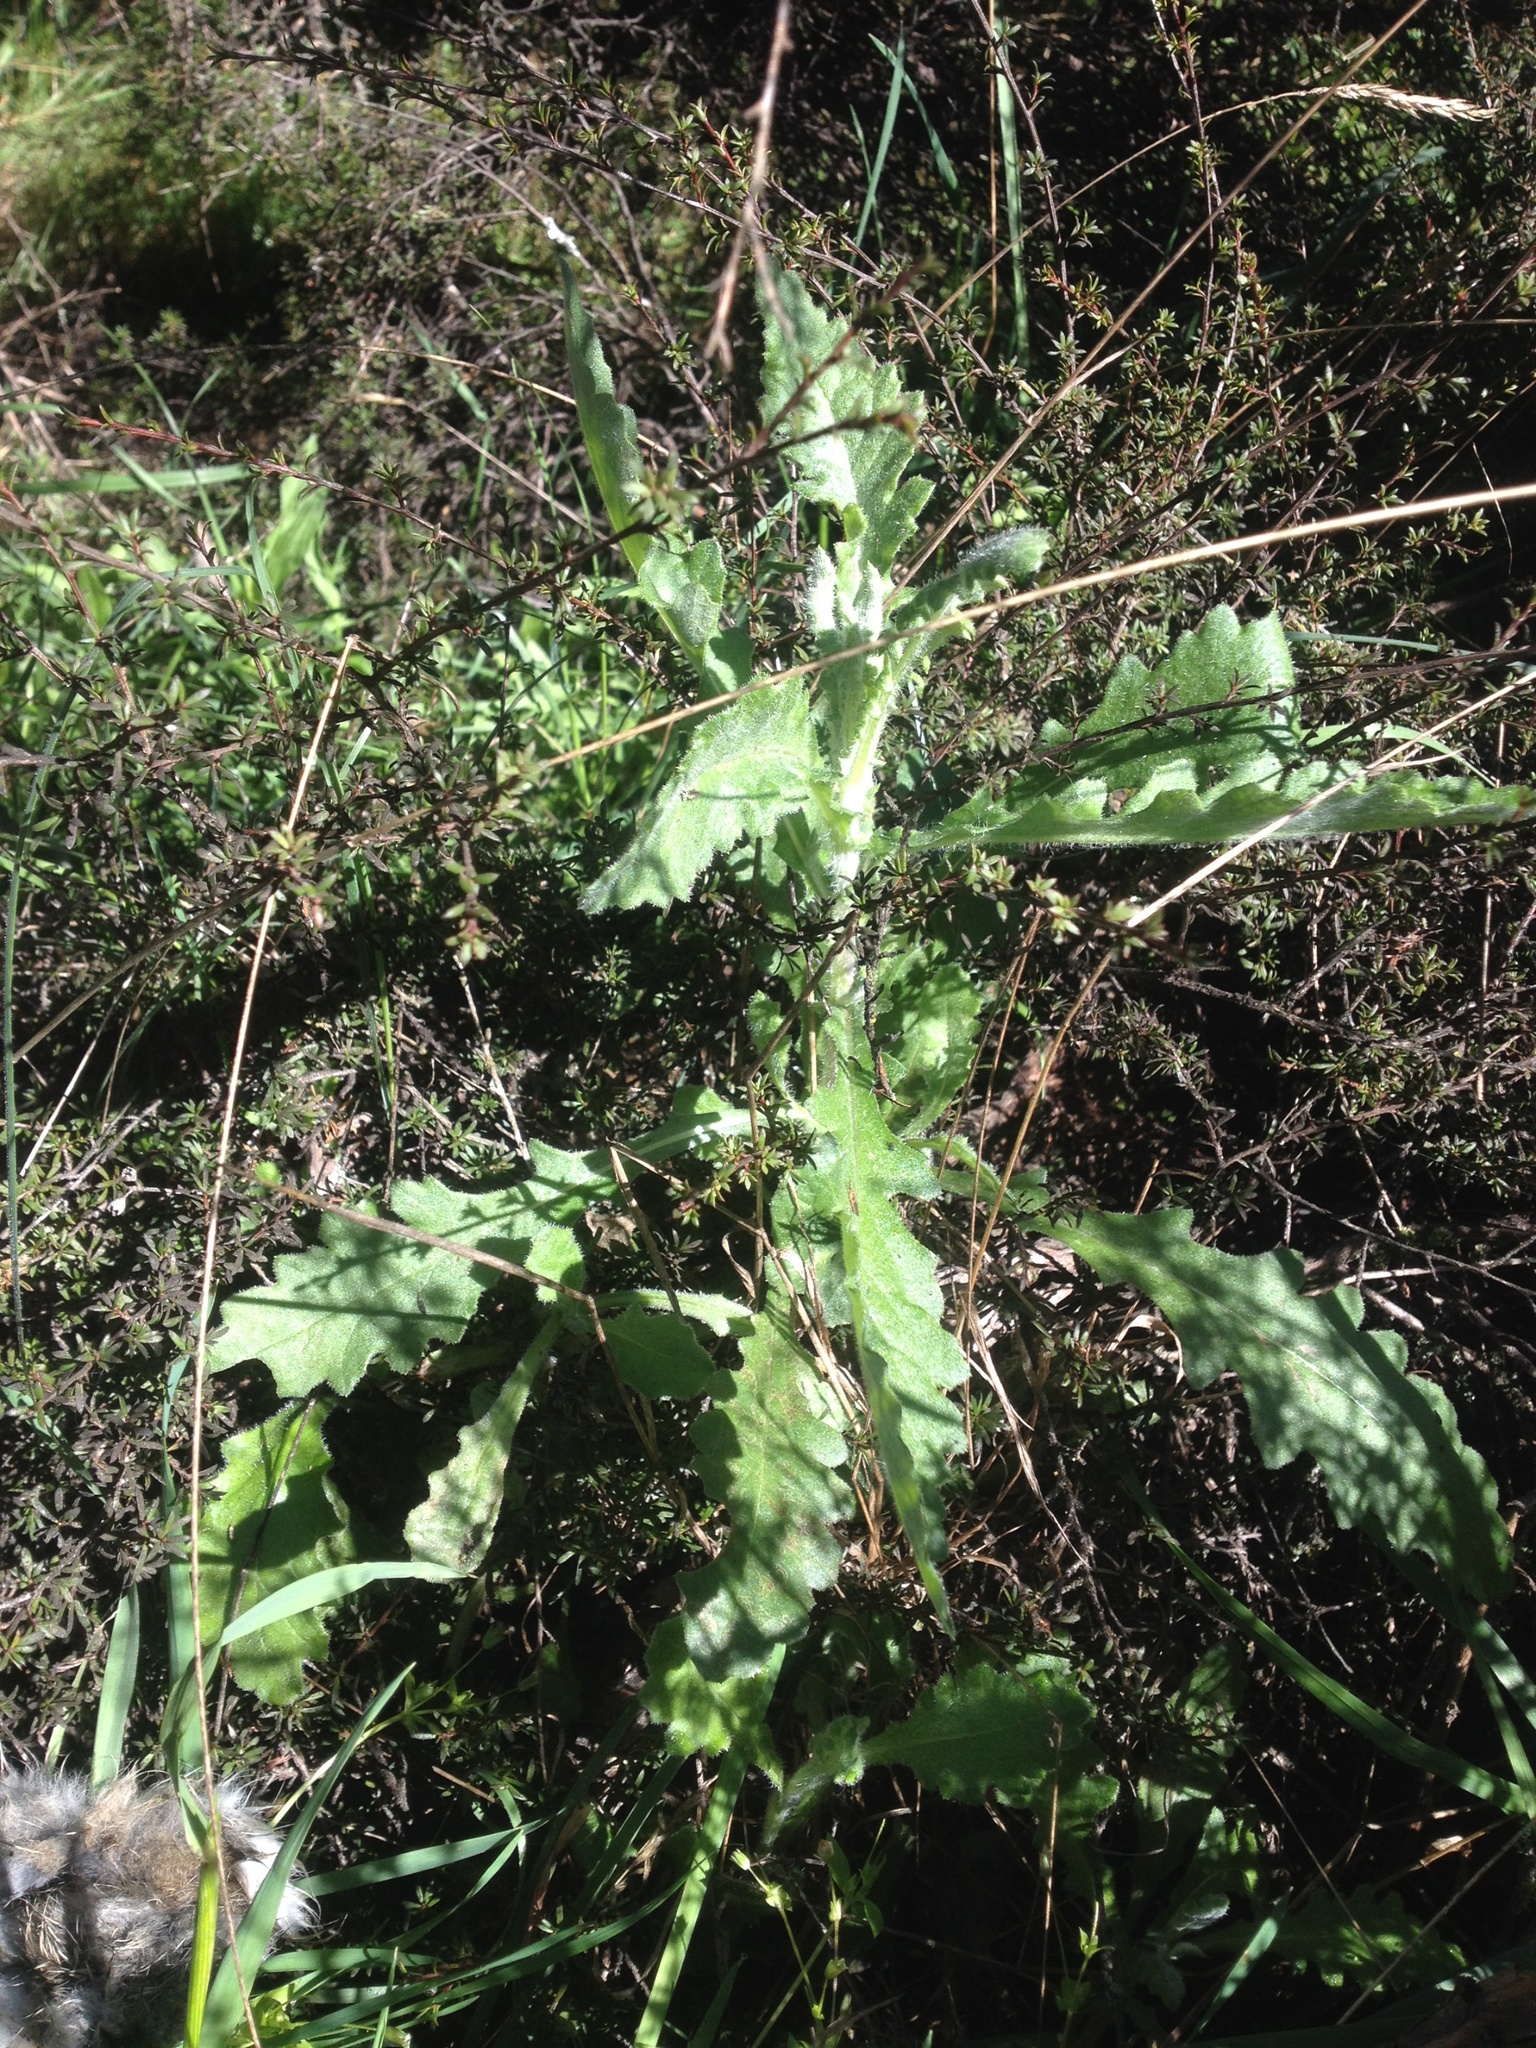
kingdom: Plantae
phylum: Tracheophyta
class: Magnoliopsida
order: Asterales
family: Asteraceae
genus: Senecio
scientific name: Senecio glomeratus
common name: Cutleaf burnweed
